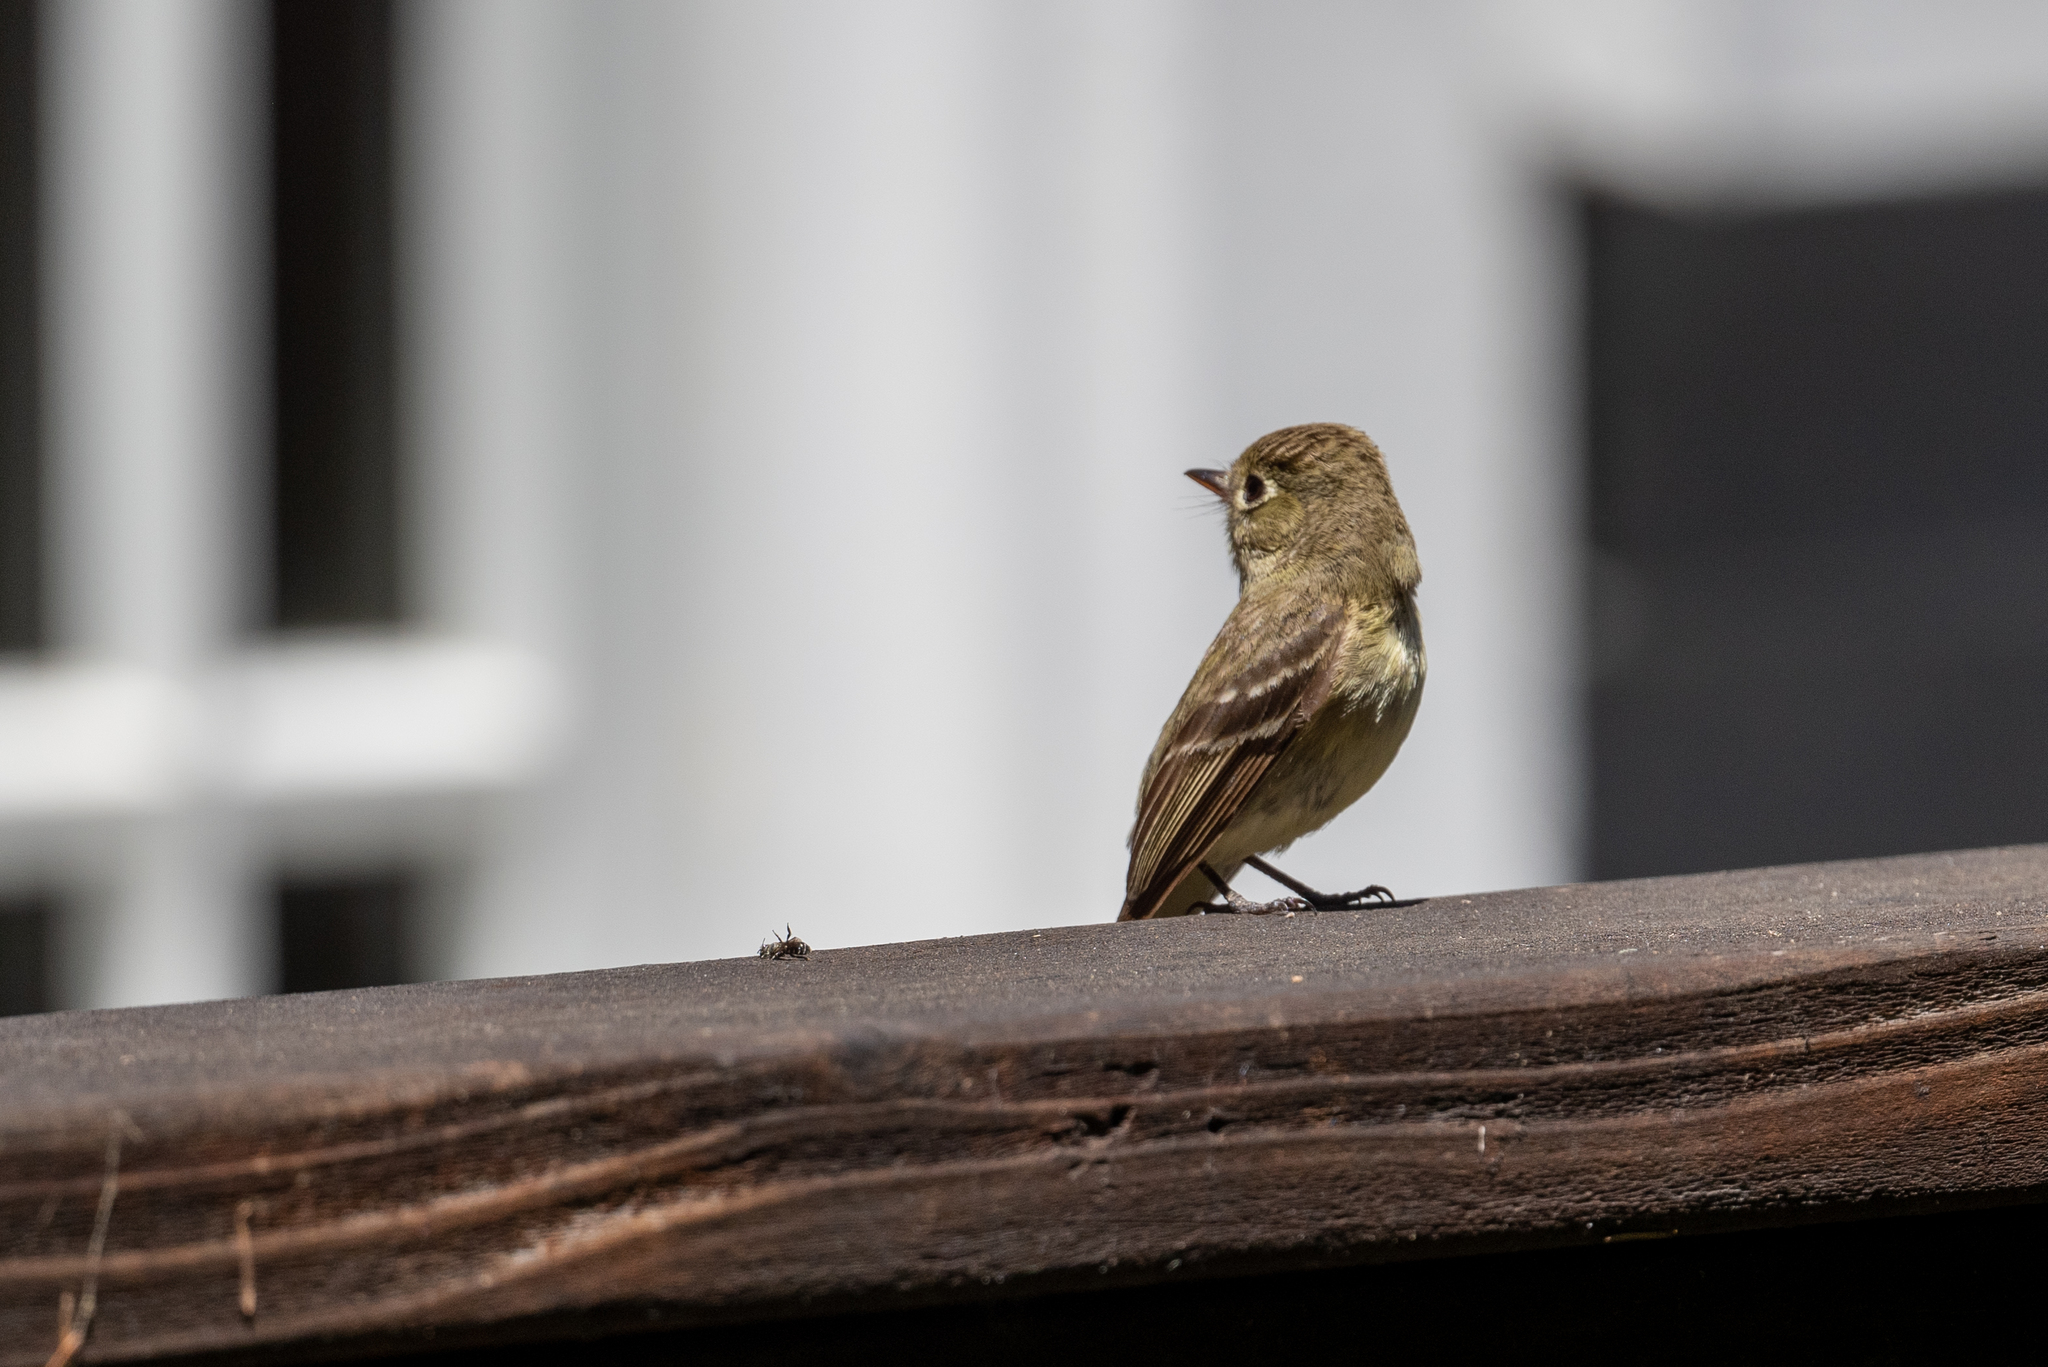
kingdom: Animalia
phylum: Chordata
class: Aves
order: Passeriformes
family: Tyrannidae
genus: Empidonax
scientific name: Empidonax difficilis
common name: Pacific-slope flycatcher
